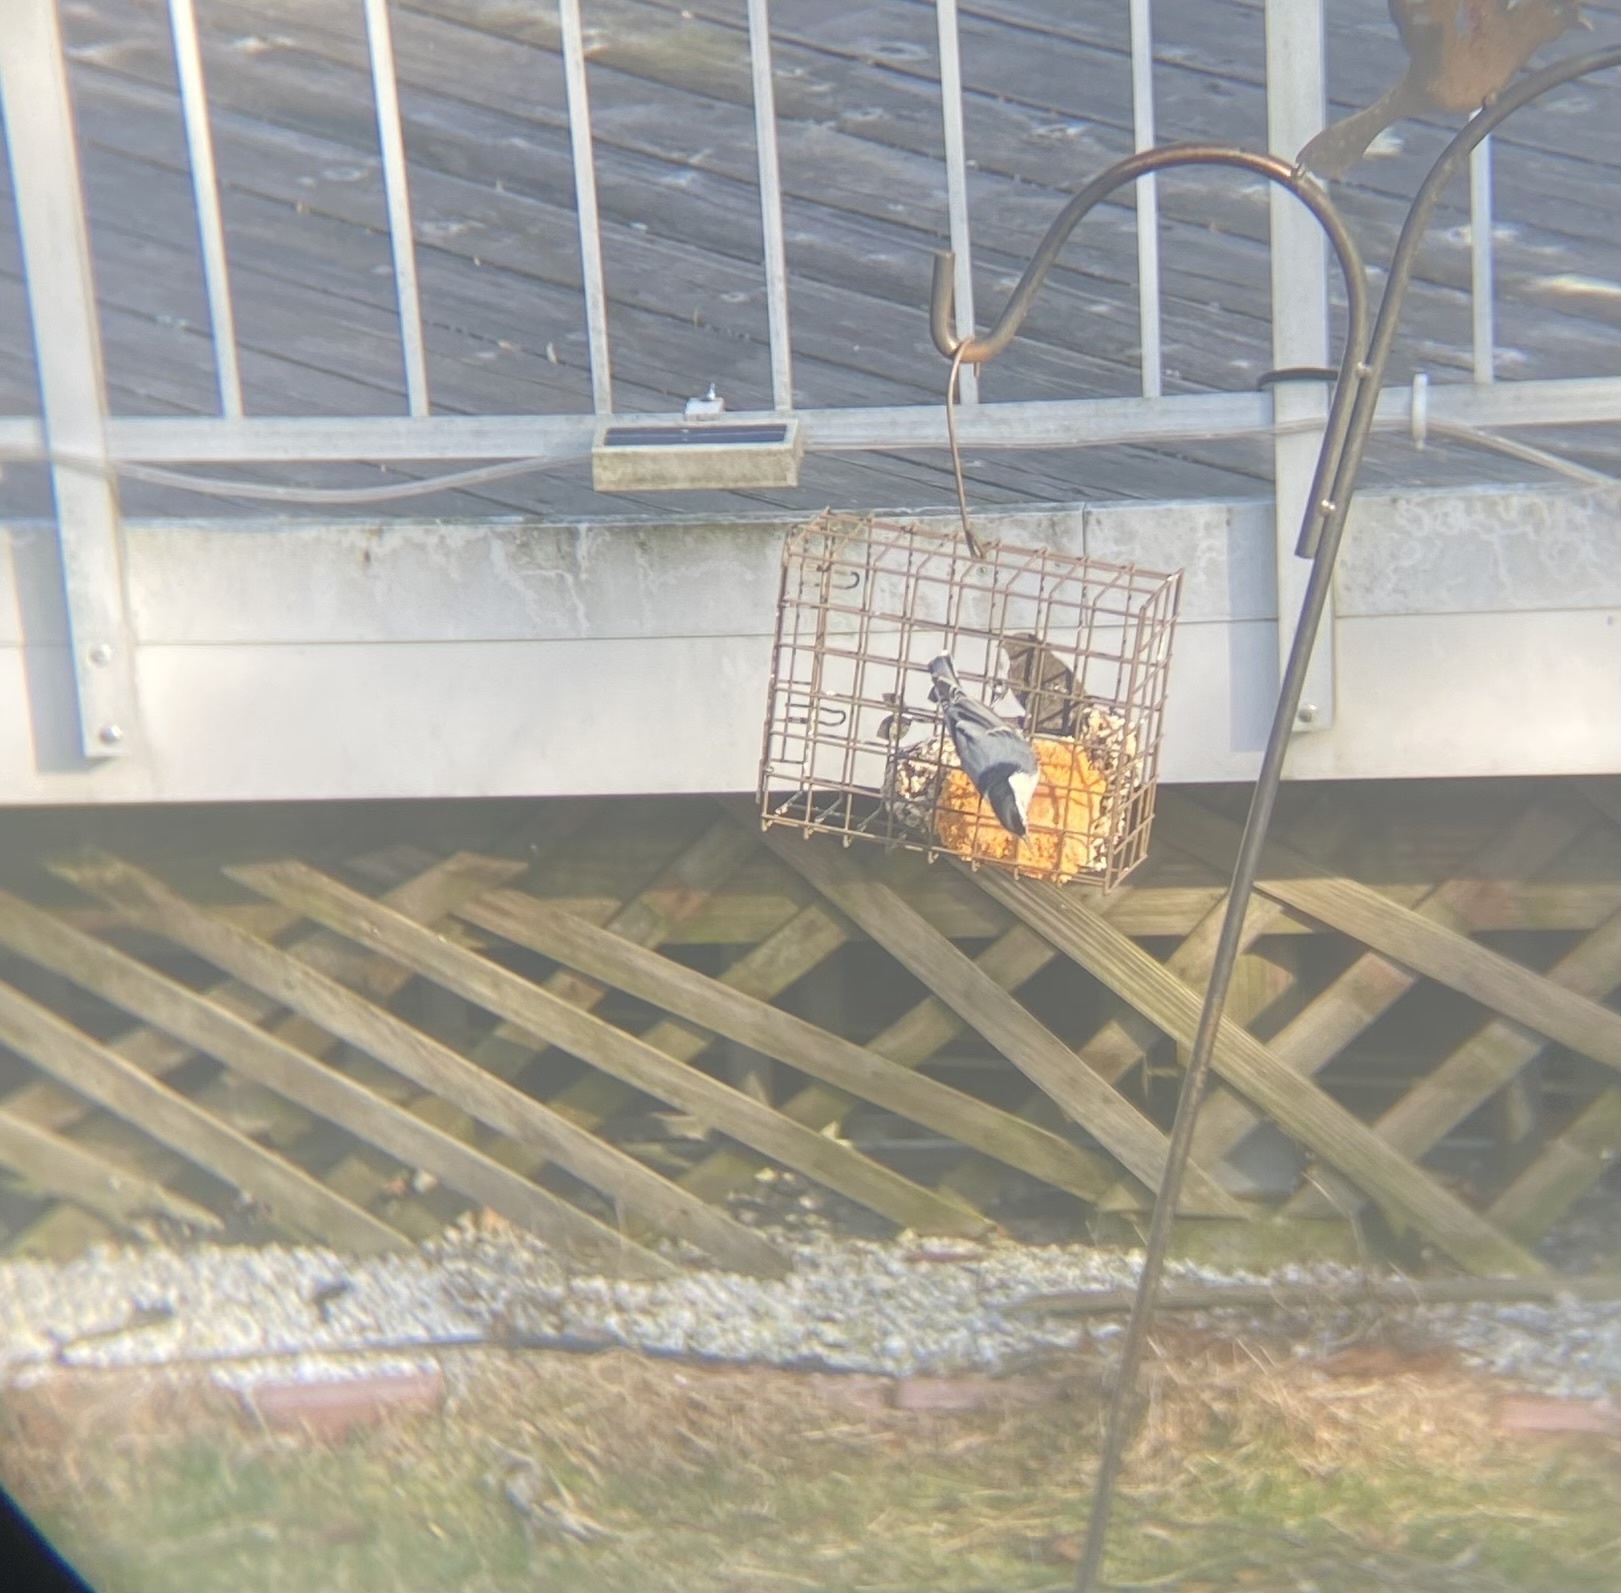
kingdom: Animalia
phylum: Chordata
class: Aves
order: Passeriformes
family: Sittidae
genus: Sitta
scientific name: Sitta carolinensis
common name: White-breasted nuthatch
